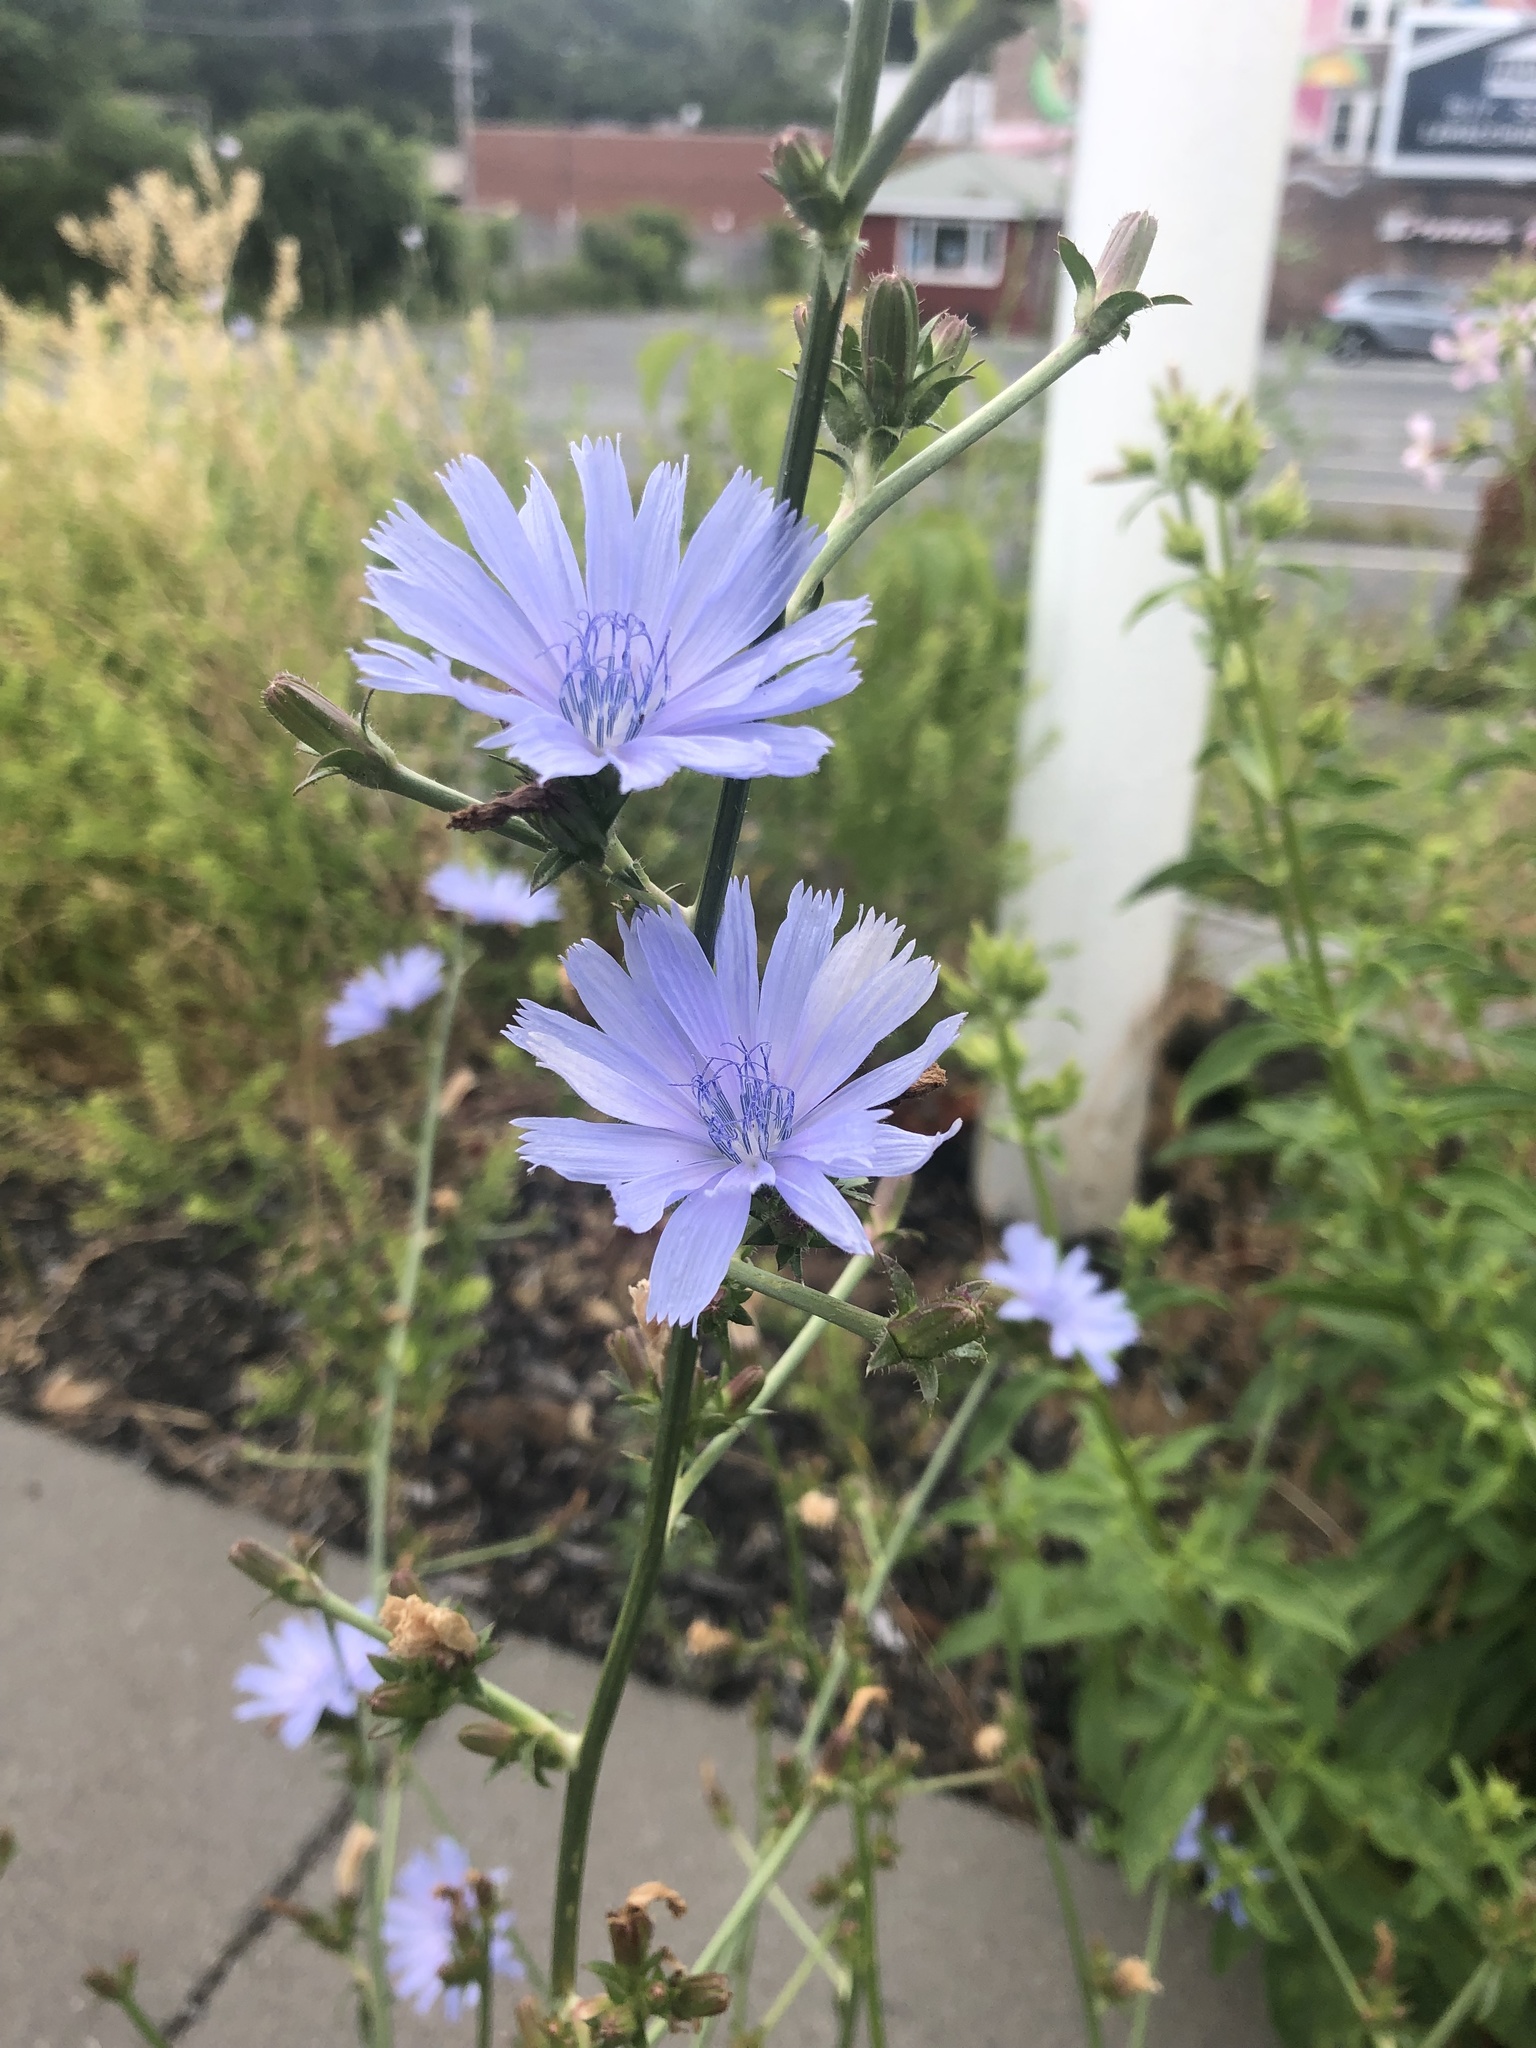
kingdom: Plantae
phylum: Tracheophyta
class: Magnoliopsida
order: Asterales
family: Asteraceae
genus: Cichorium
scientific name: Cichorium intybus
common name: Chicory
